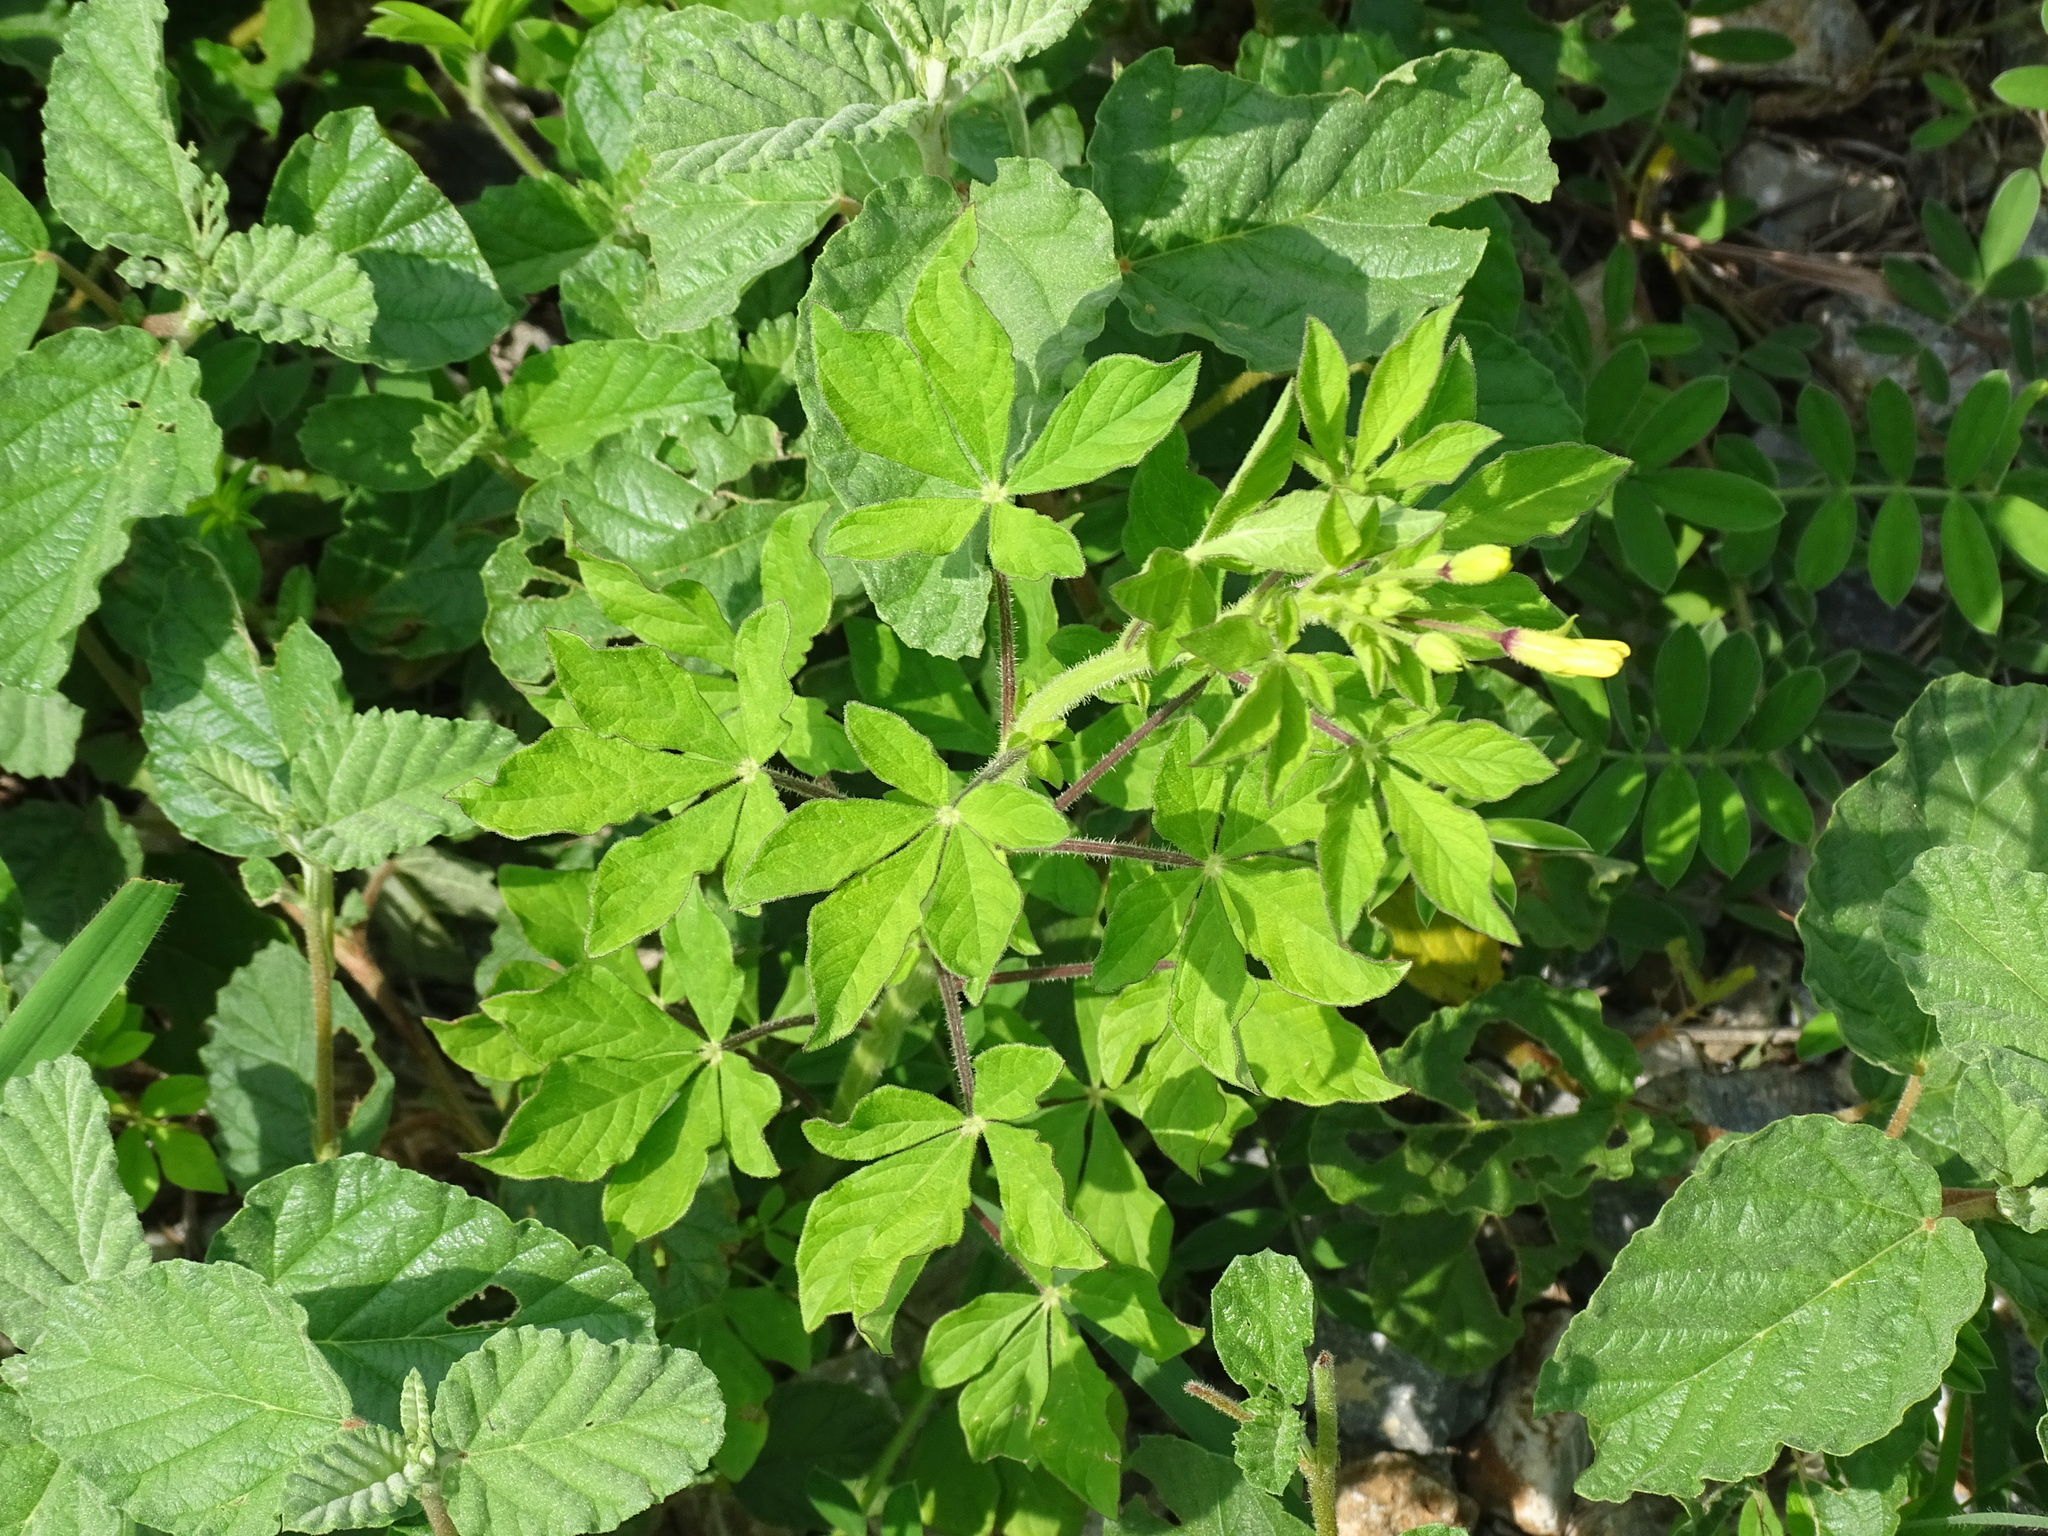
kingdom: Plantae
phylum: Tracheophyta
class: Magnoliopsida
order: Brassicales
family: Cleomaceae
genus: Arivela
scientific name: Arivela viscosa
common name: Asian spiderflower
